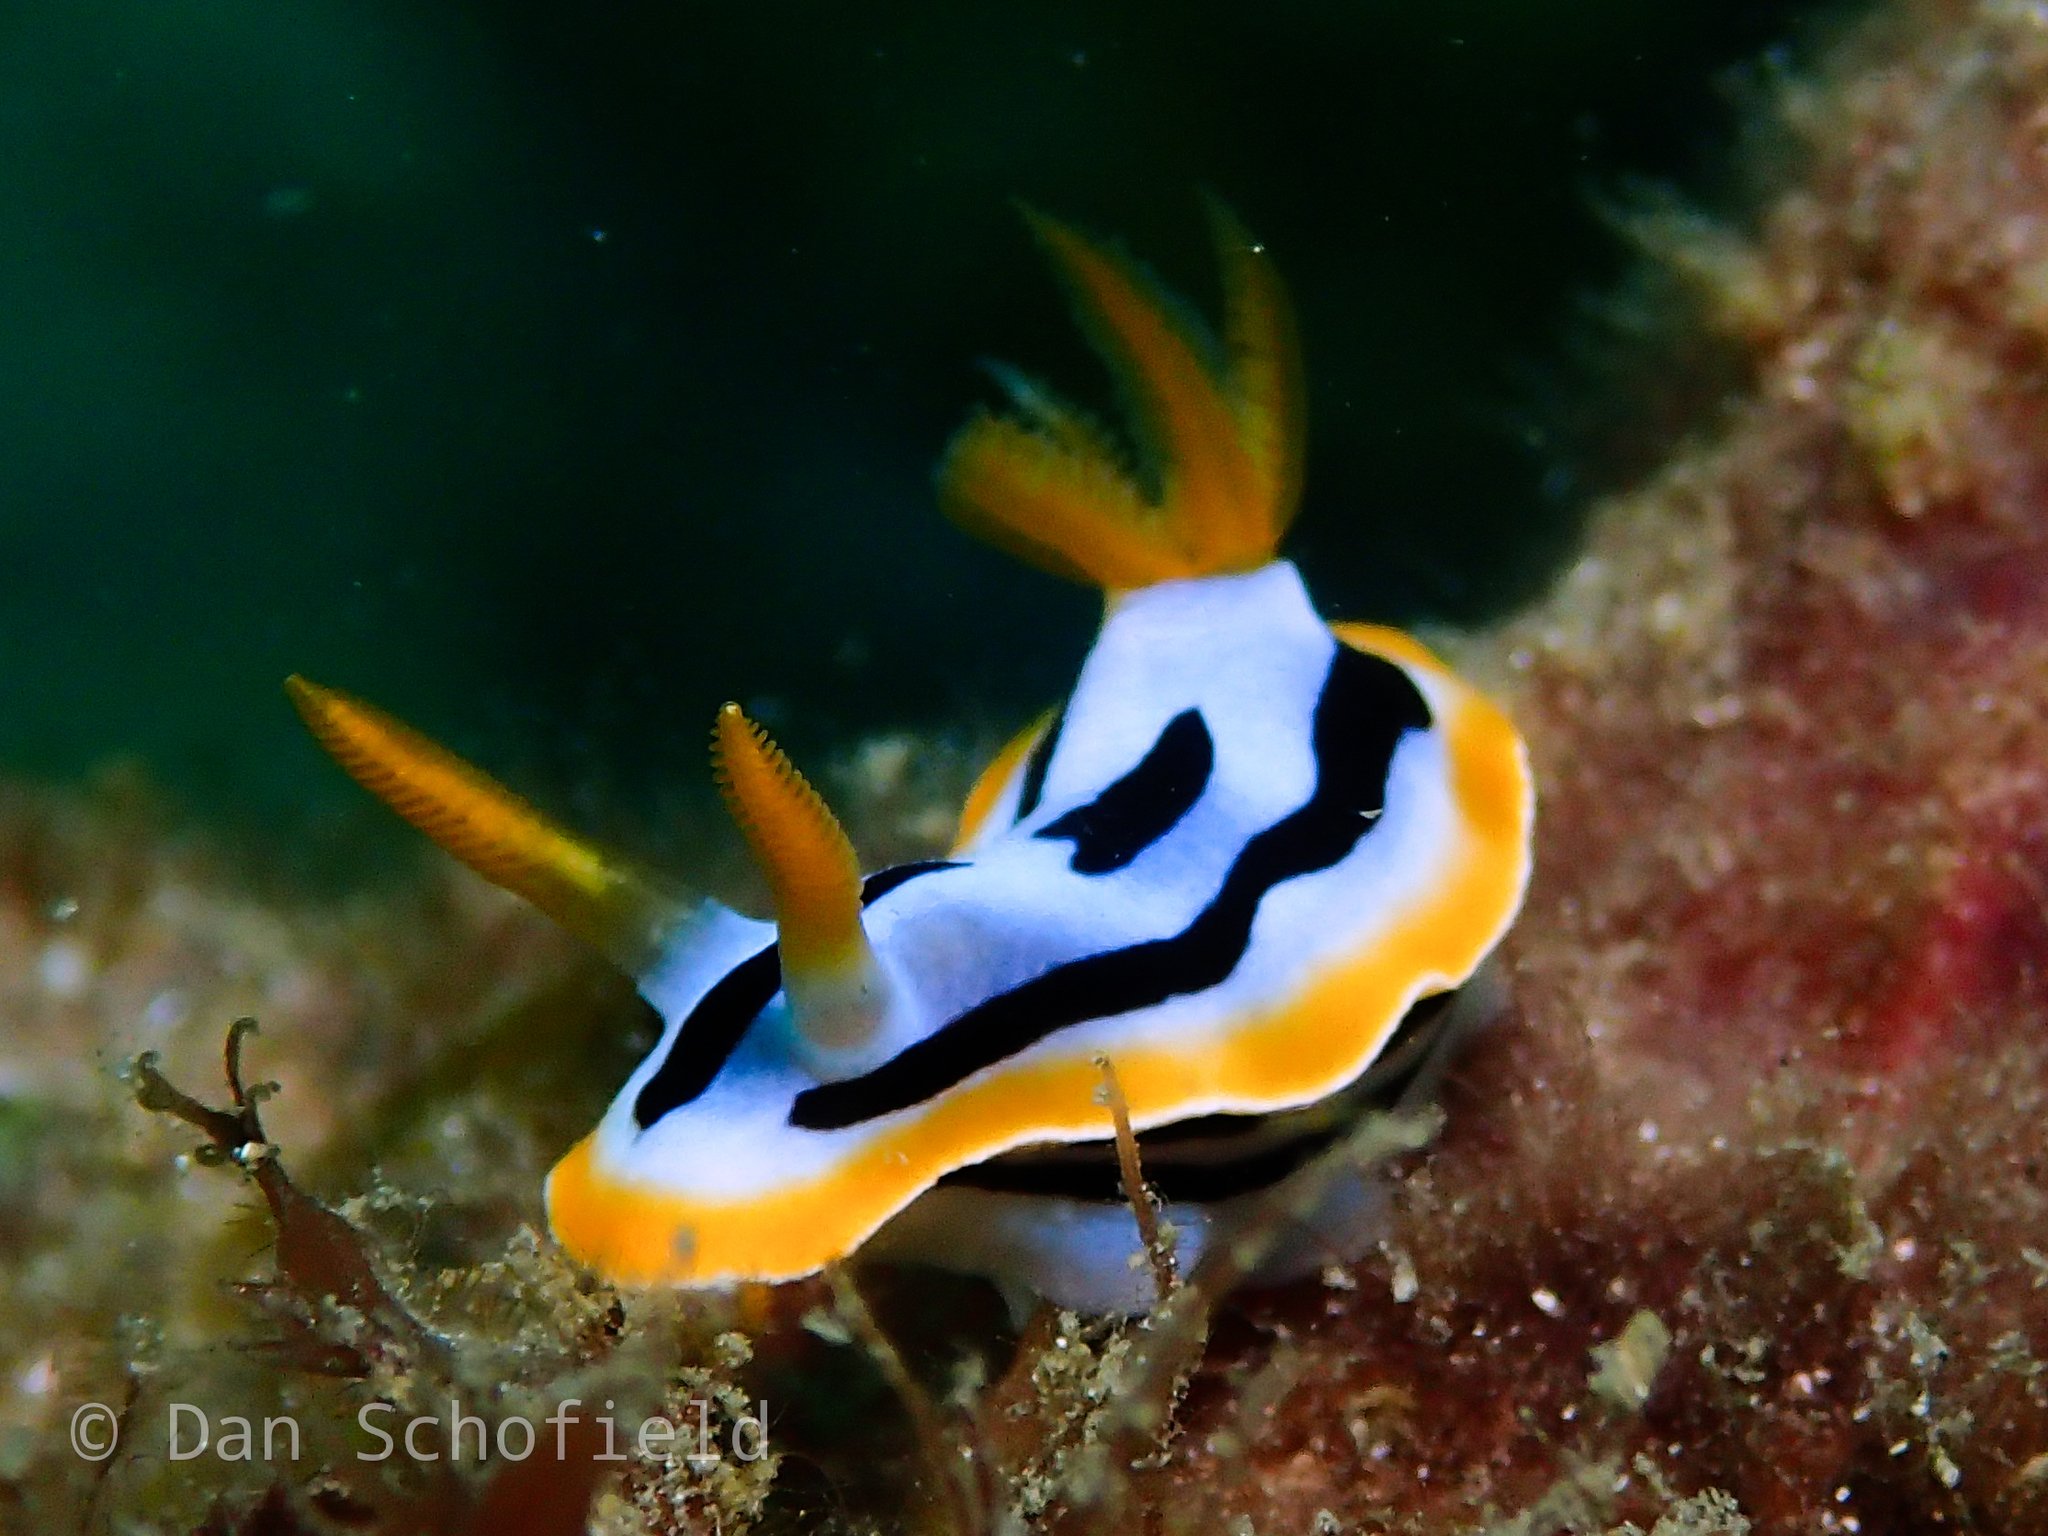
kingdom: Animalia
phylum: Mollusca
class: Gastropoda
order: Nudibranchia
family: Chromodorididae
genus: Chromodoris
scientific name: Chromodoris strigata
